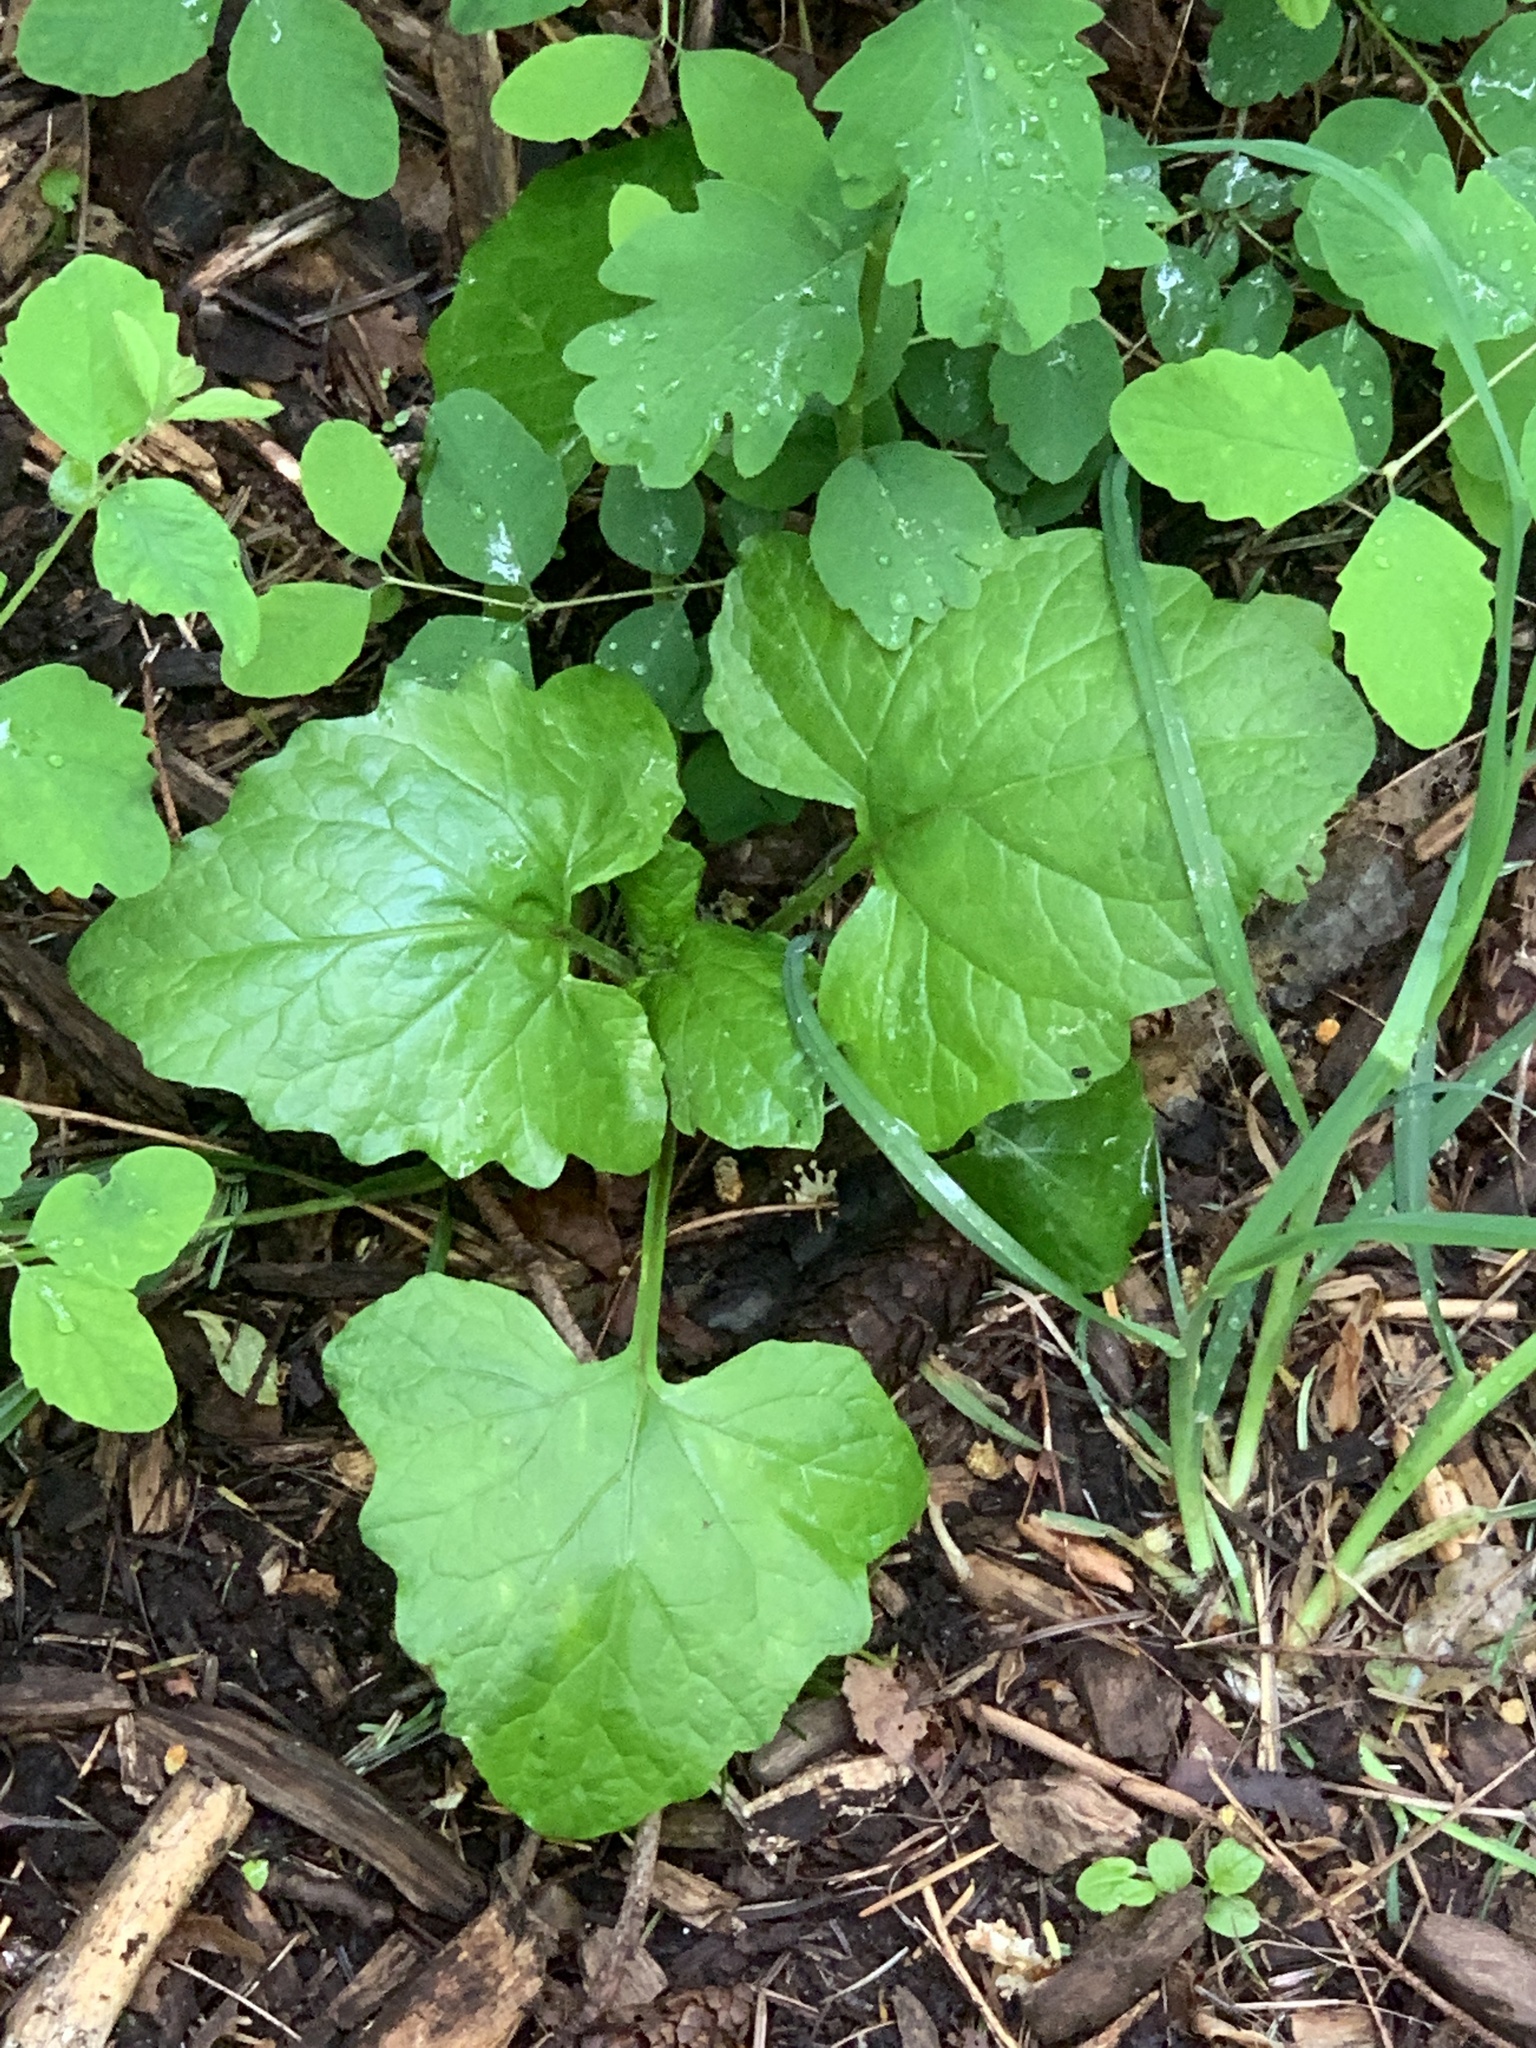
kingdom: Plantae
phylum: Tracheophyta
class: Magnoliopsida
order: Asterales
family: Asteraceae
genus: Adenocaulon
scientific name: Adenocaulon bicolor
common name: Trailplant
